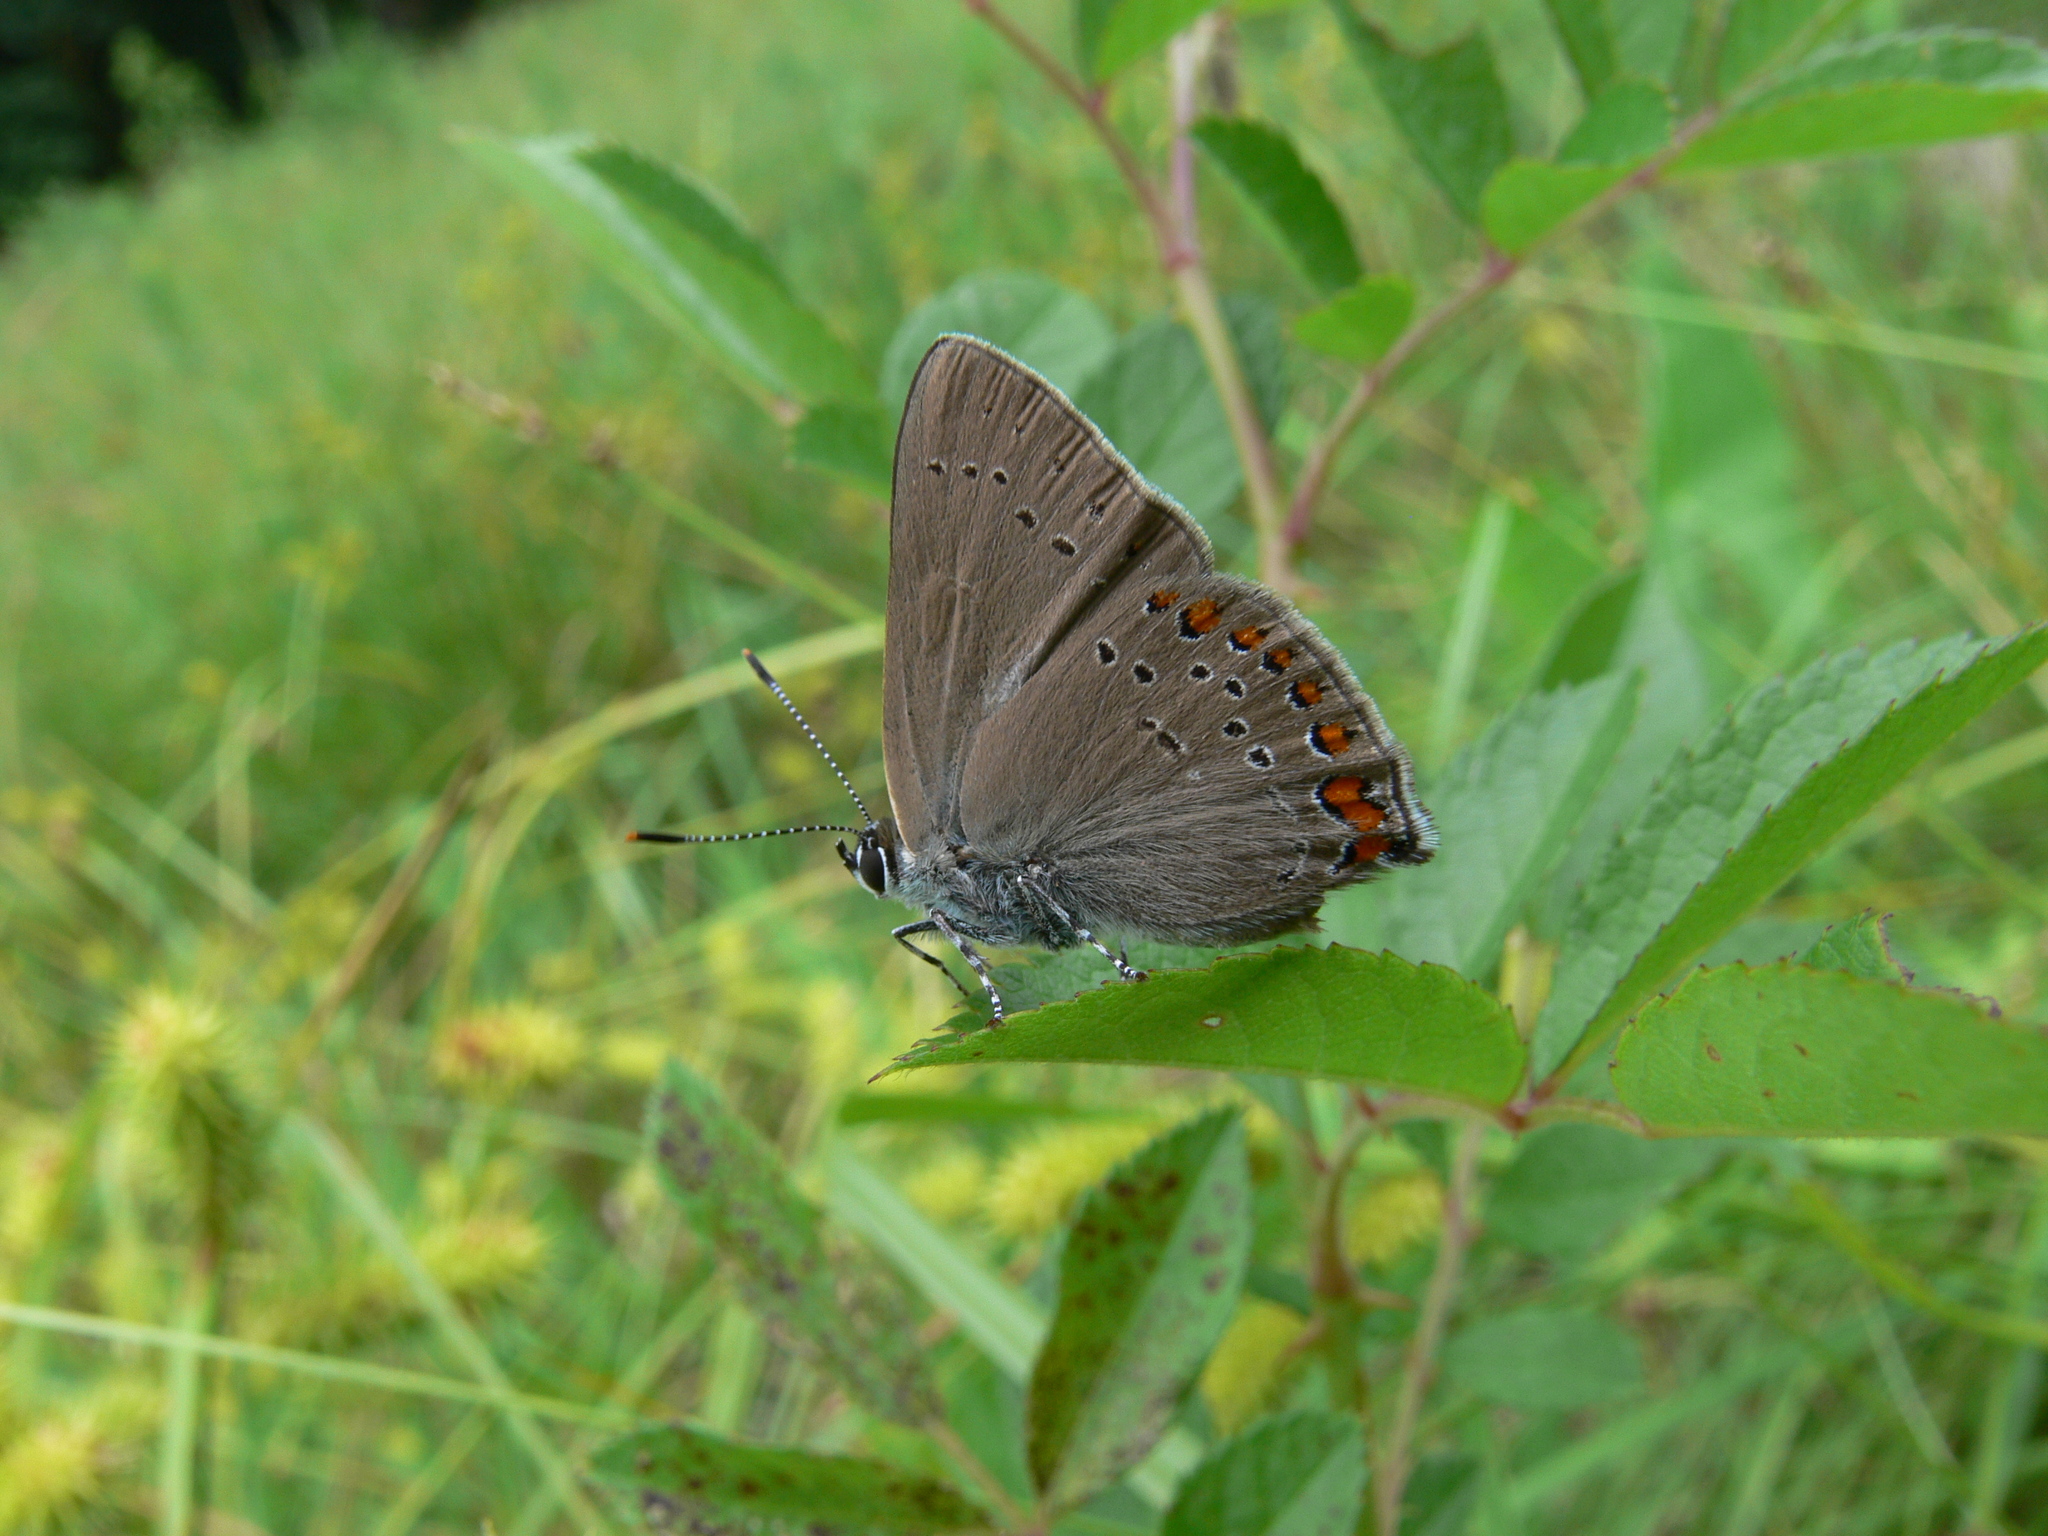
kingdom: Animalia
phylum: Arthropoda
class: Insecta
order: Lepidoptera
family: Lycaenidae
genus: Harkenclenus
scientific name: Harkenclenus titus
